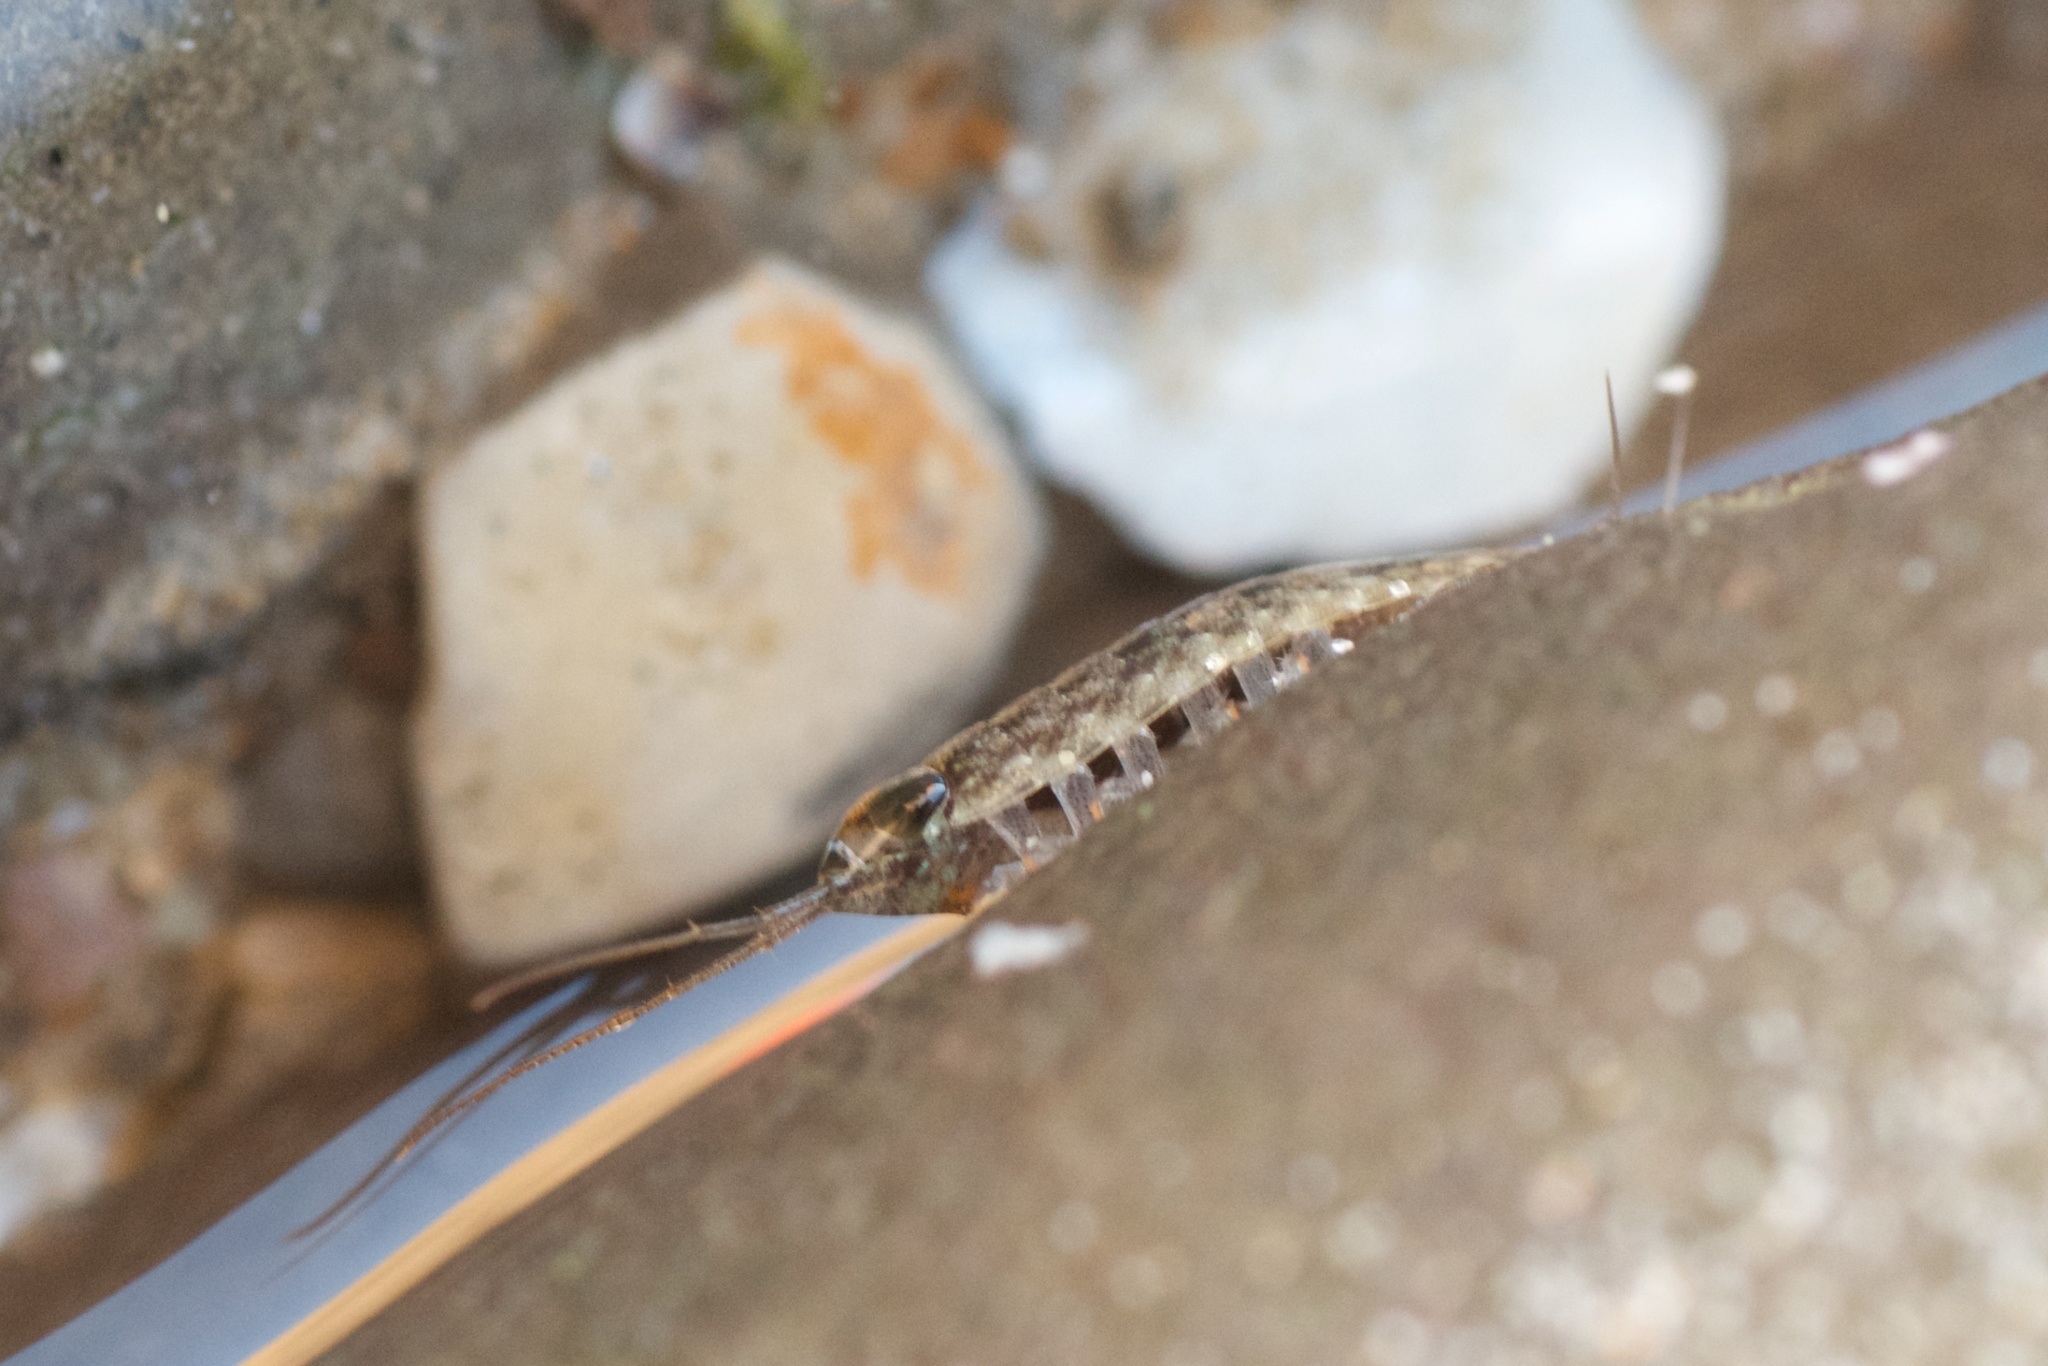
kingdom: Animalia
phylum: Arthropoda
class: Malacostraca
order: Isopoda
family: Ligiidae
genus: Ligia
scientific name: Ligia occidentalis
